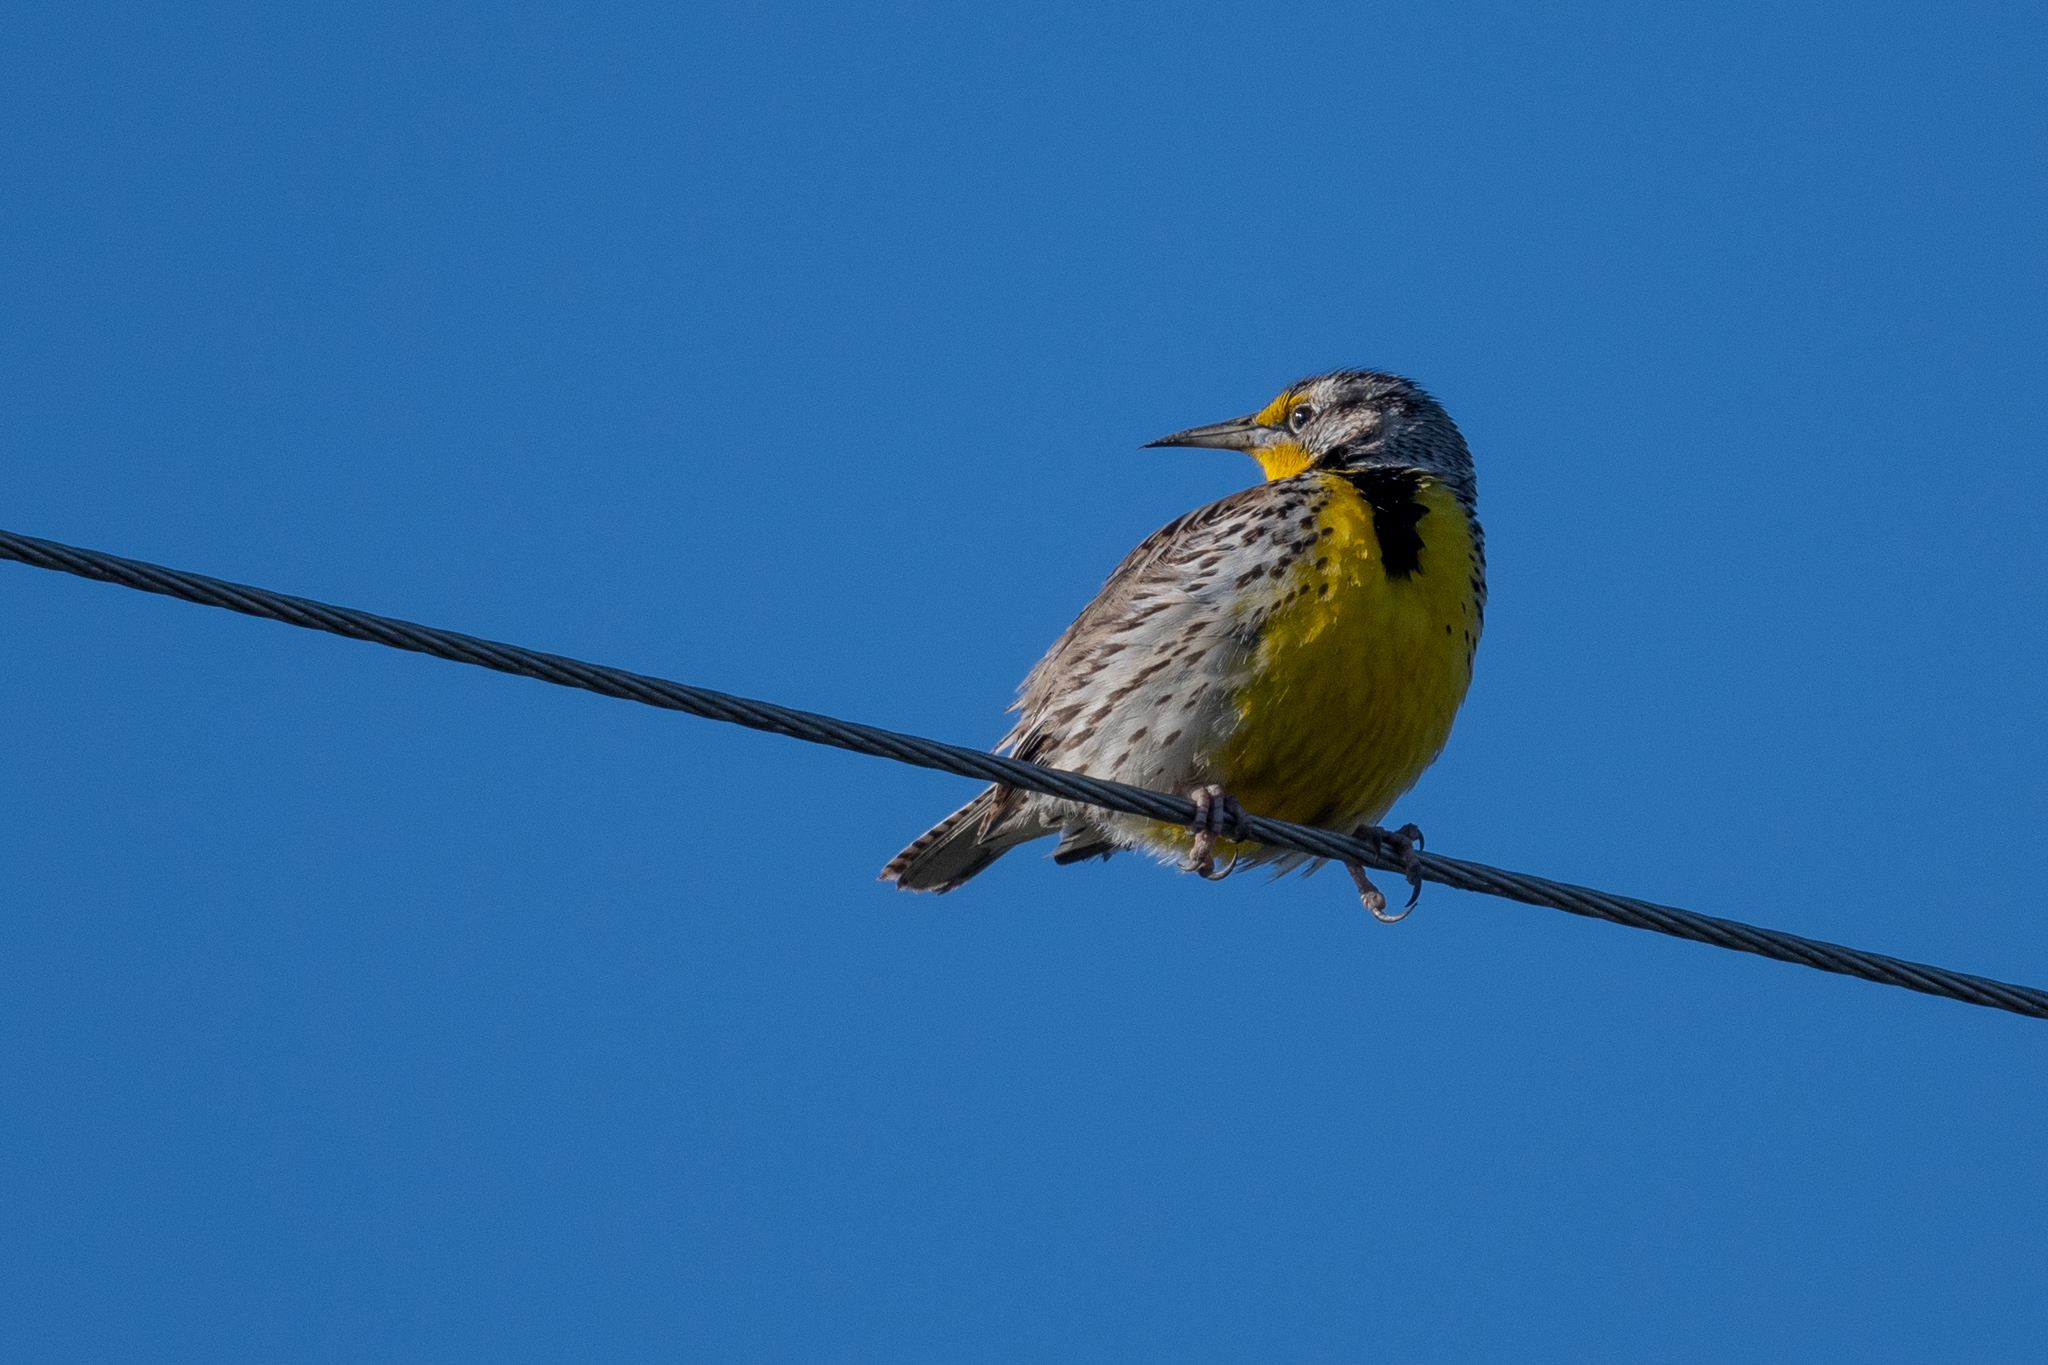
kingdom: Animalia
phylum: Chordata
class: Aves
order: Passeriformes
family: Icteridae
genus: Sturnella
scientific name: Sturnella neglecta
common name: Western meadowlark
